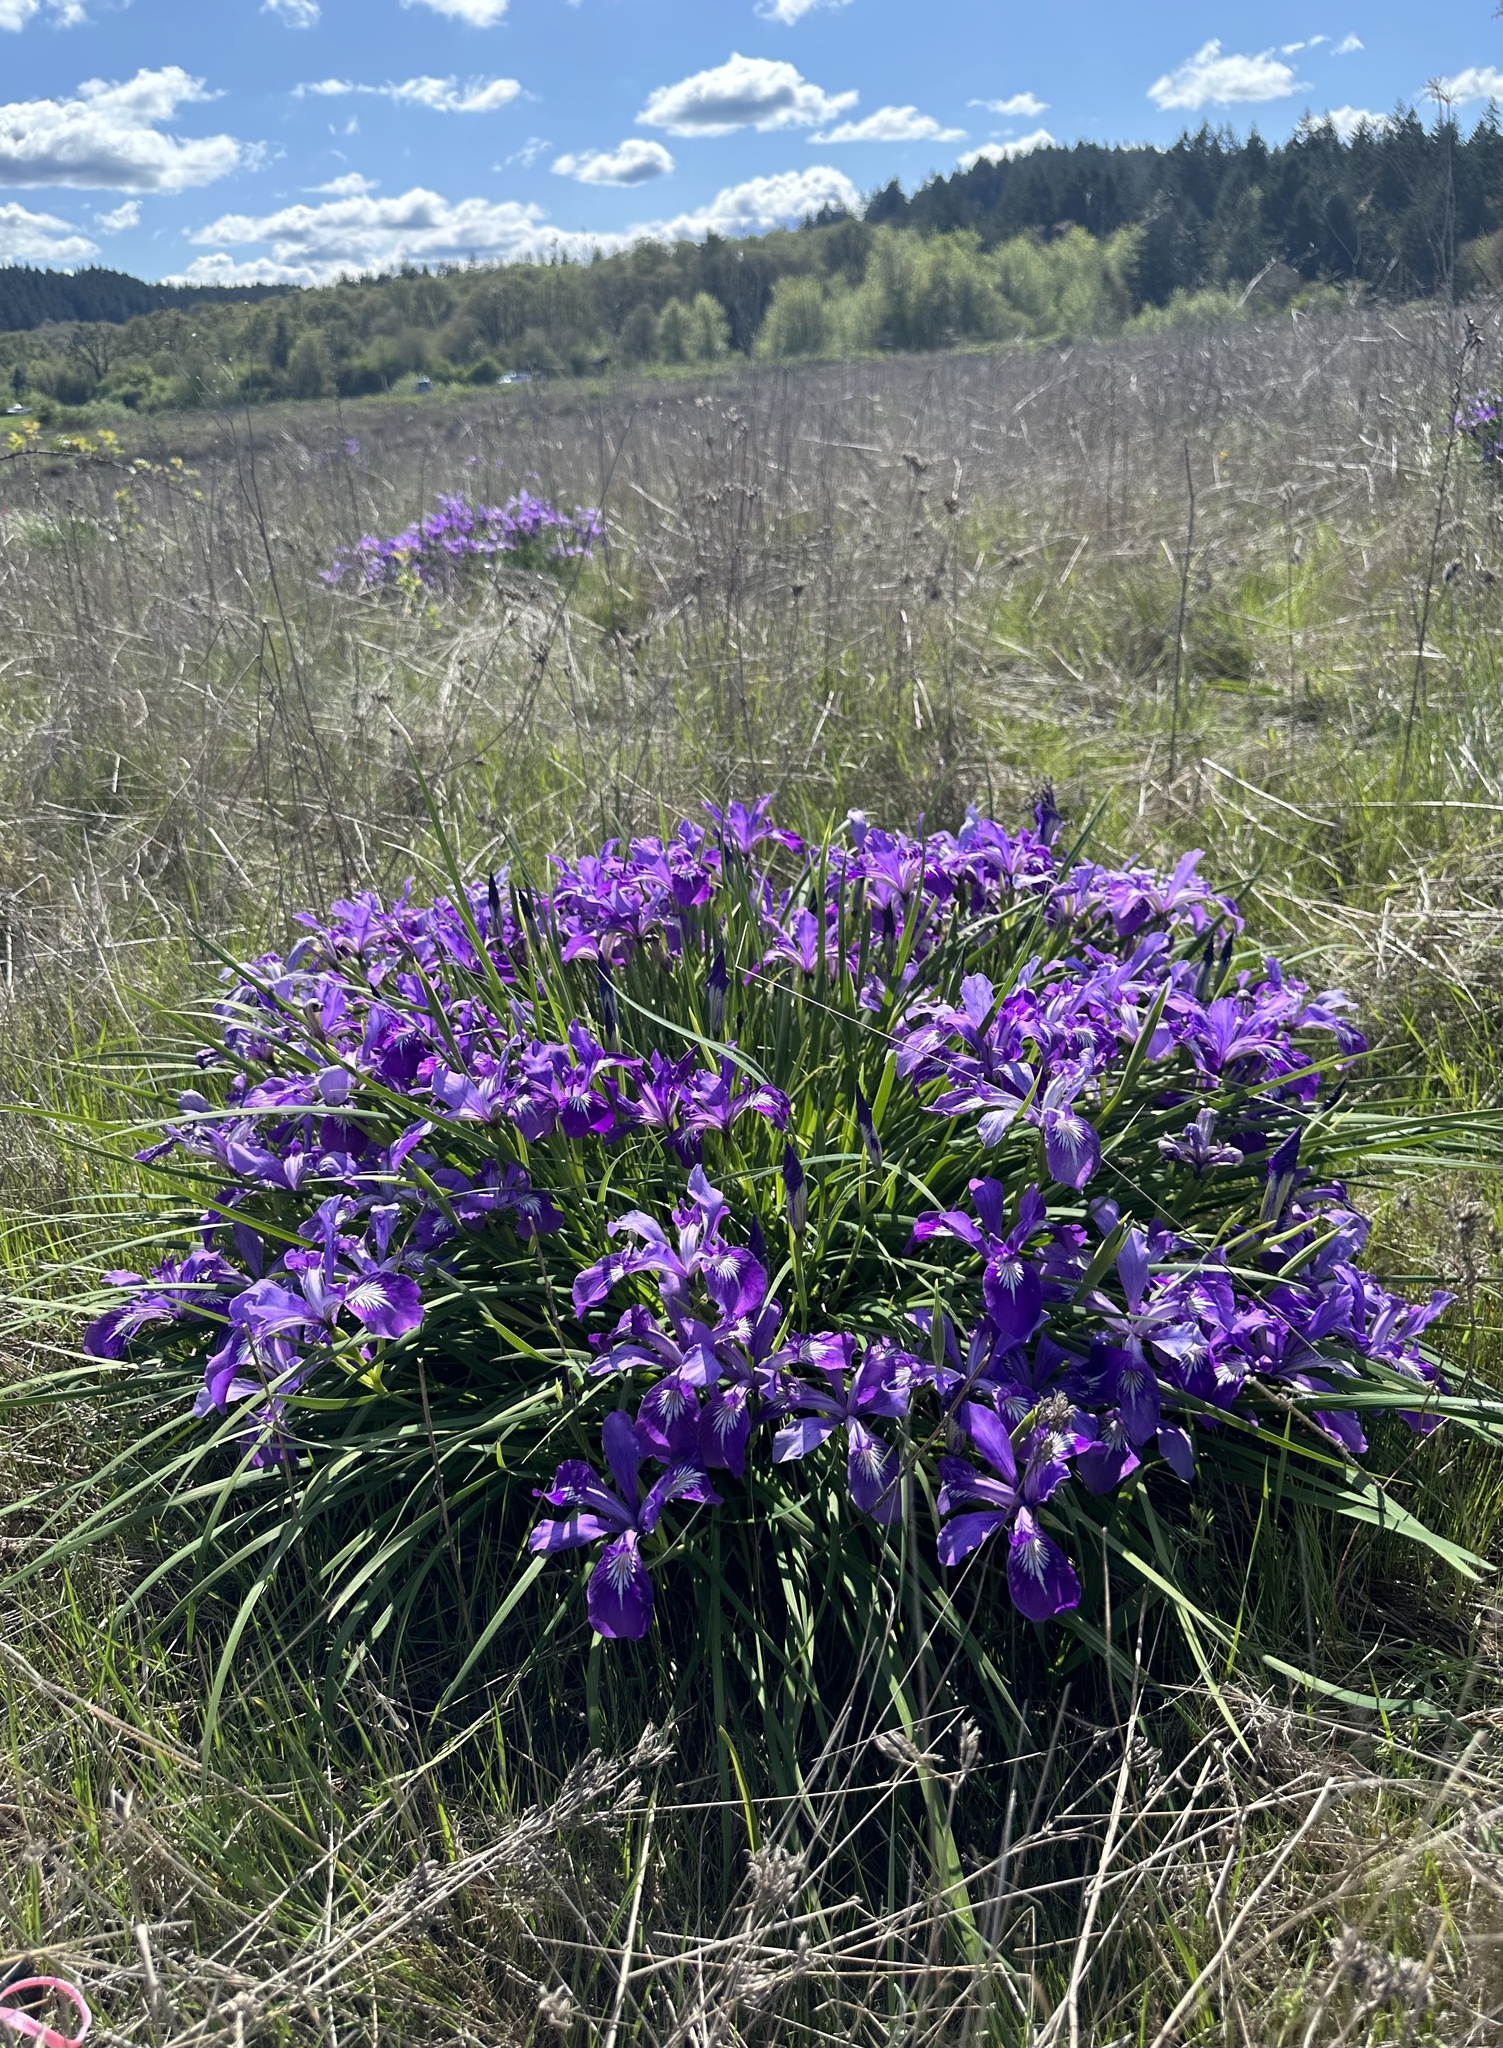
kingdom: Plantae
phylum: Tracheophyta
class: Liliopsida
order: Asparagales
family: Iridaceae
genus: Iris
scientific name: Iris tenax
